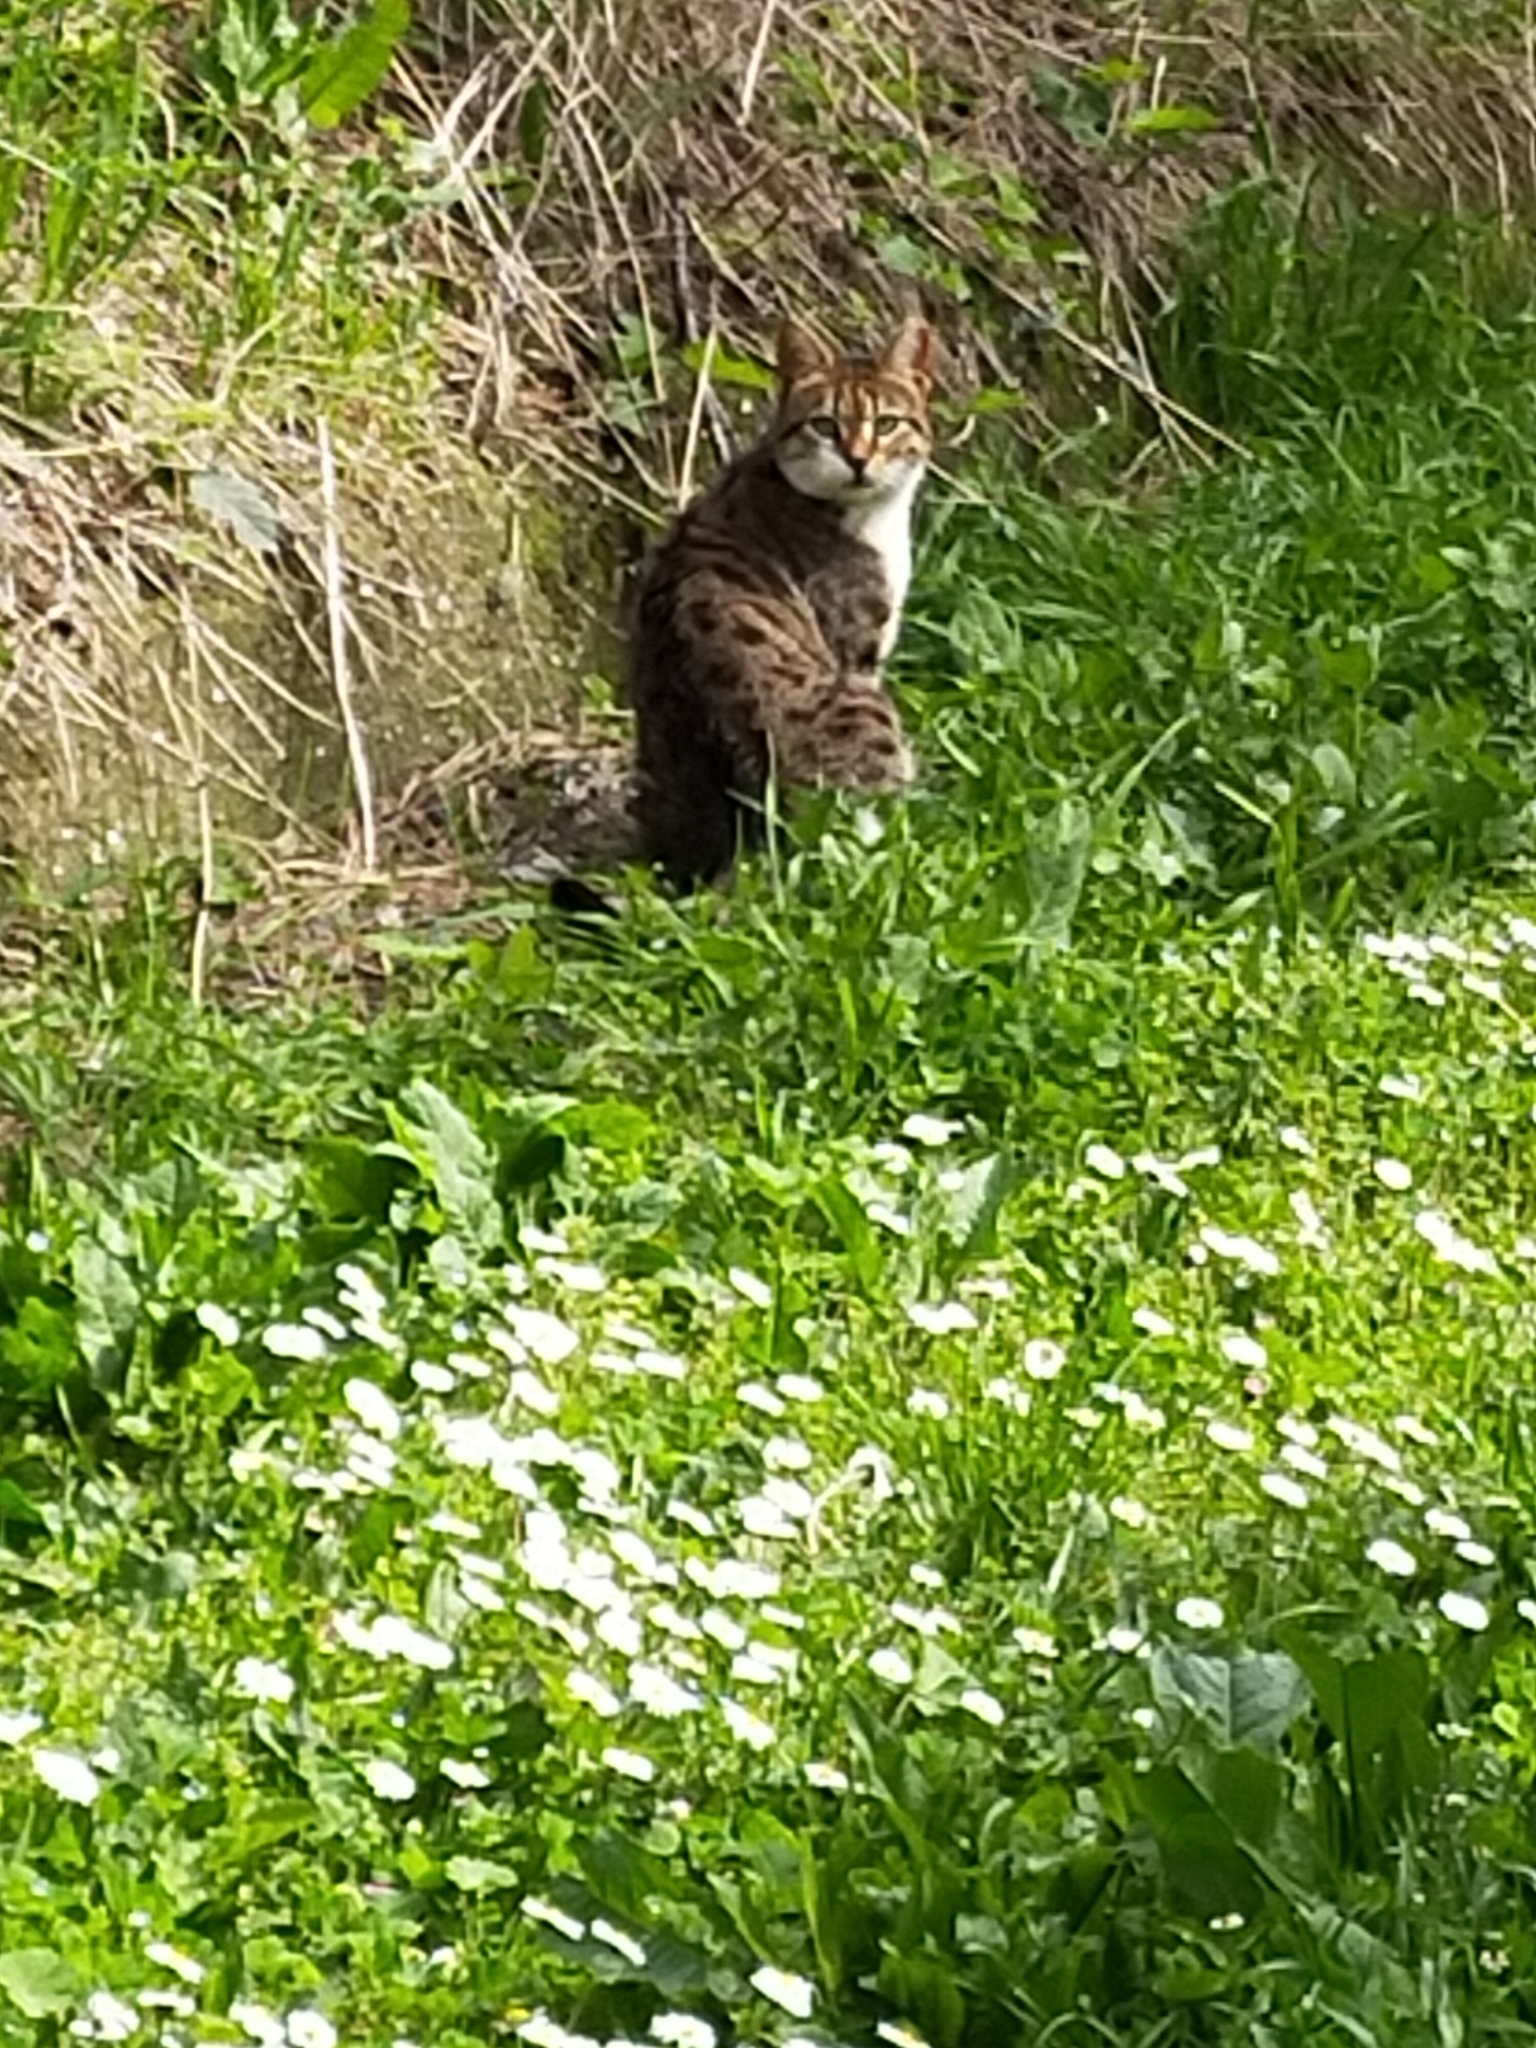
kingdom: Animalia
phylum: Chordata
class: Mammalia
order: Carnivora
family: Felidae
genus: Felis
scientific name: Felis catus
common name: Domestic cat
